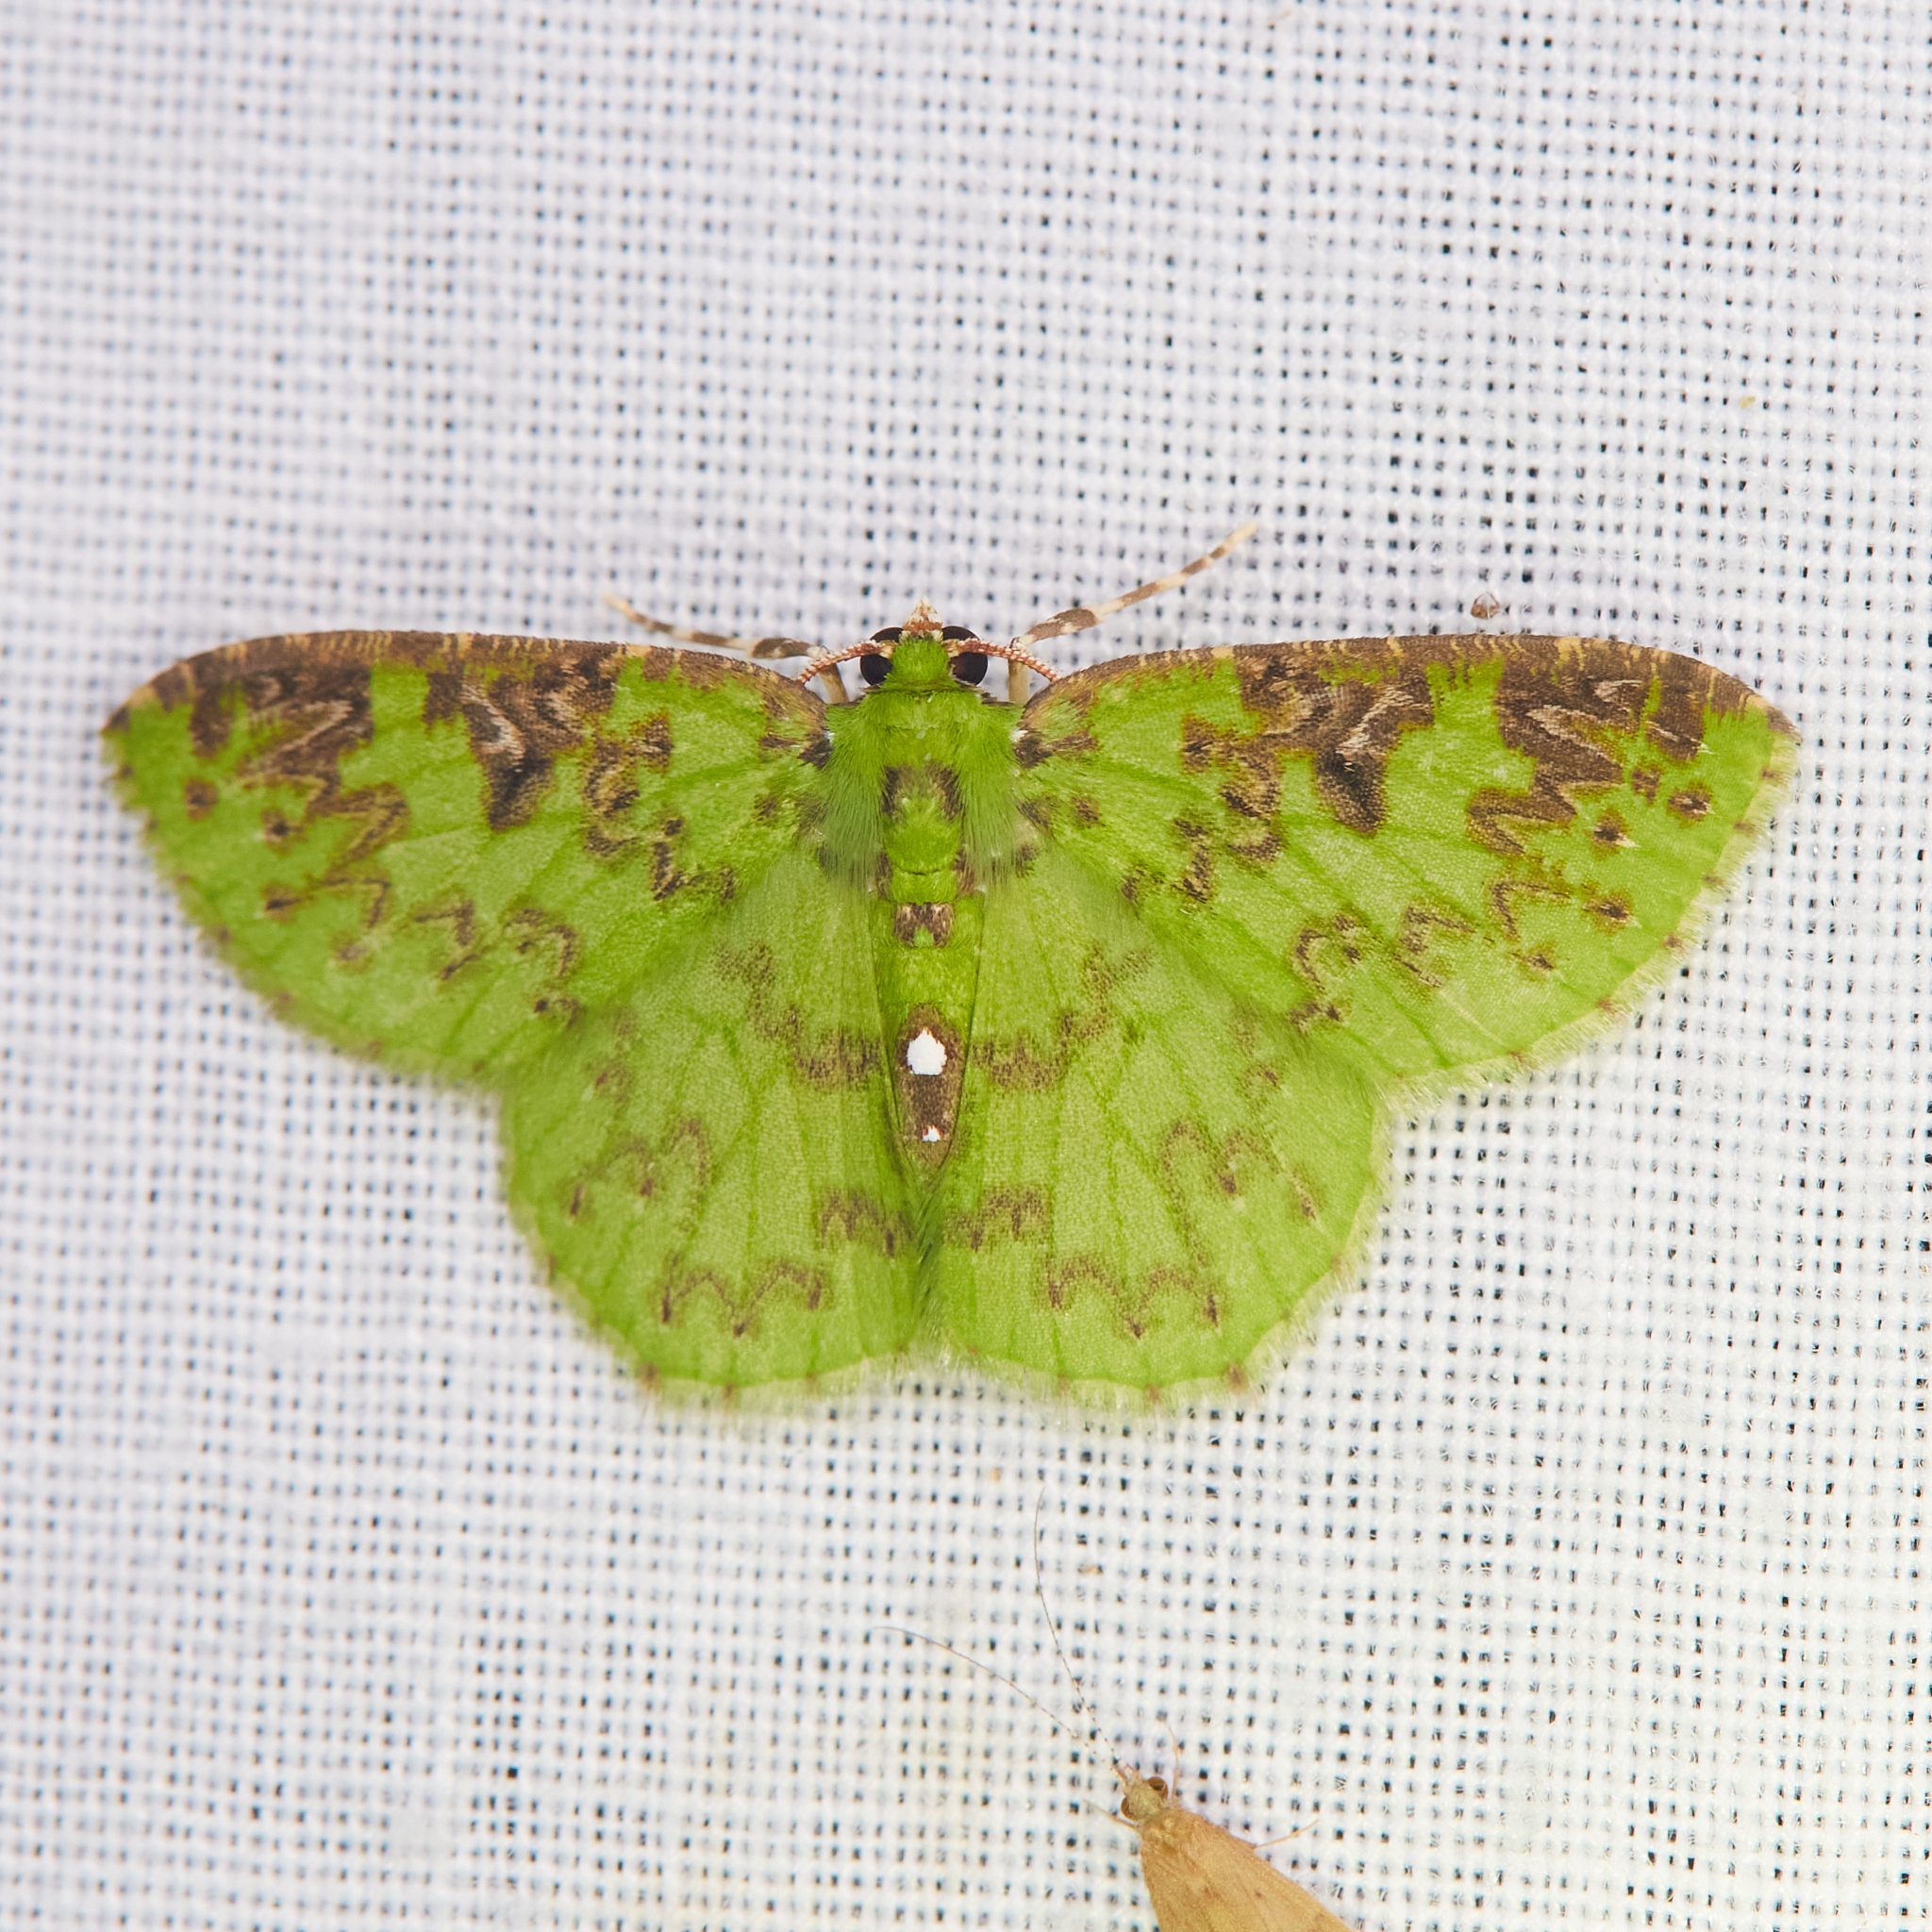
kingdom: Animalia
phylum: Arthropoda
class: Insecta
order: Lepidoptera
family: Geometridae
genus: Nemoria
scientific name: Nemoria adjunctaria
